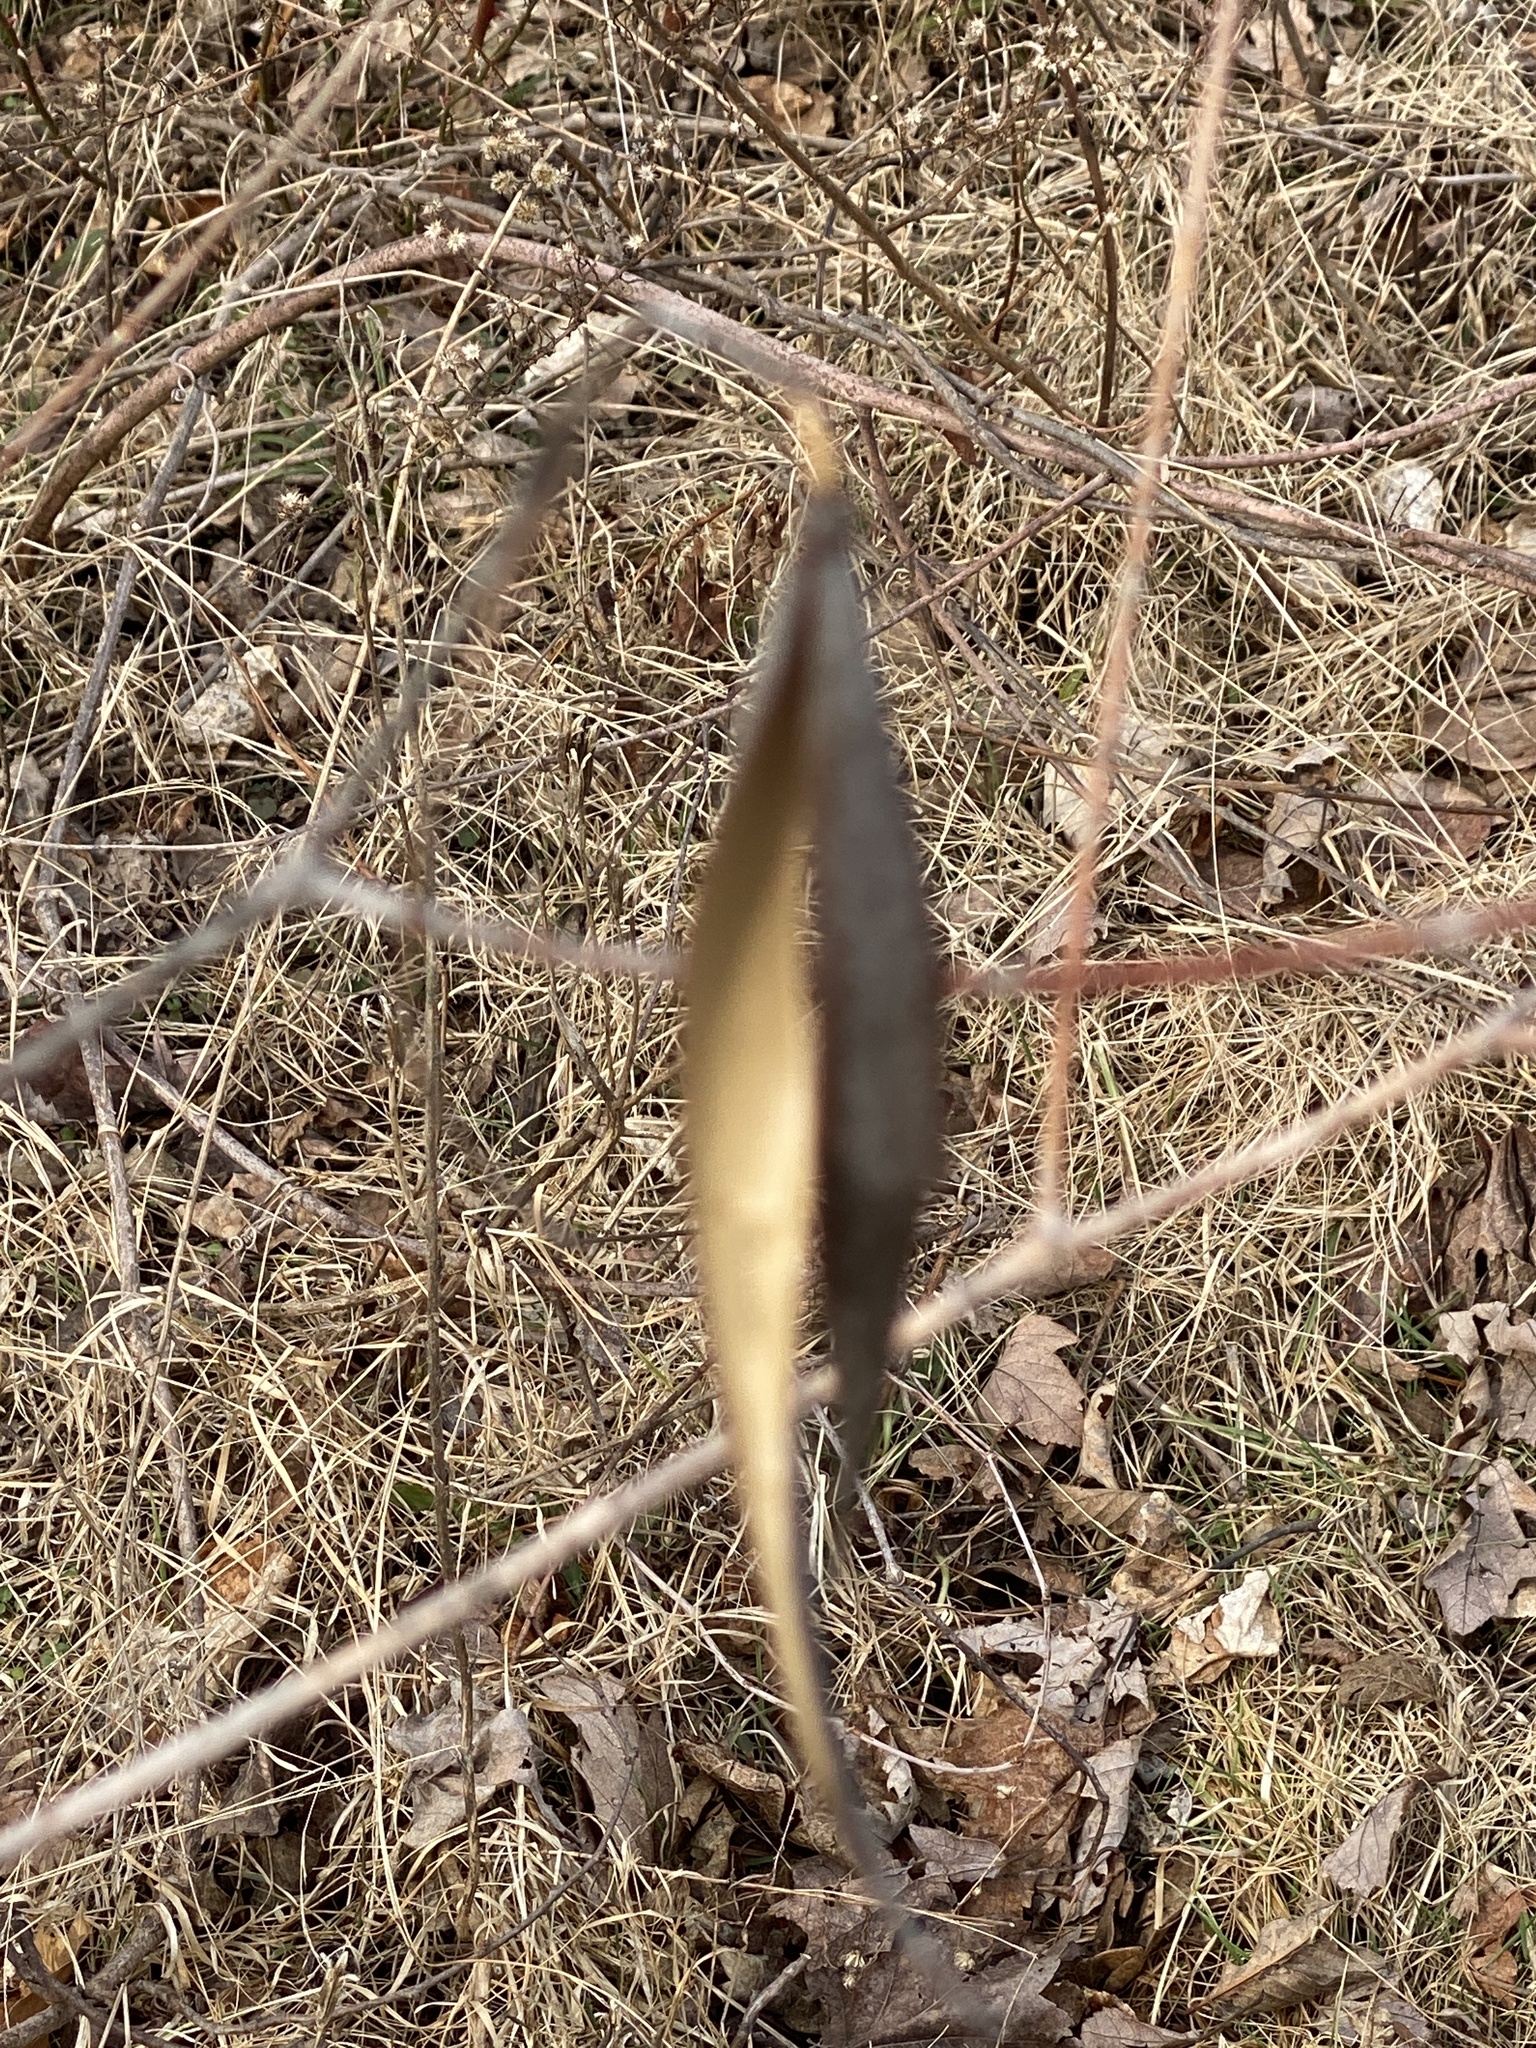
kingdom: Plantae
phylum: Tracheophyta
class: Magnoliopsida
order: Gentianales
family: Apocynaceae
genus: Apocynum
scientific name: Apocynum cannabinum
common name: Hemp dogbane
